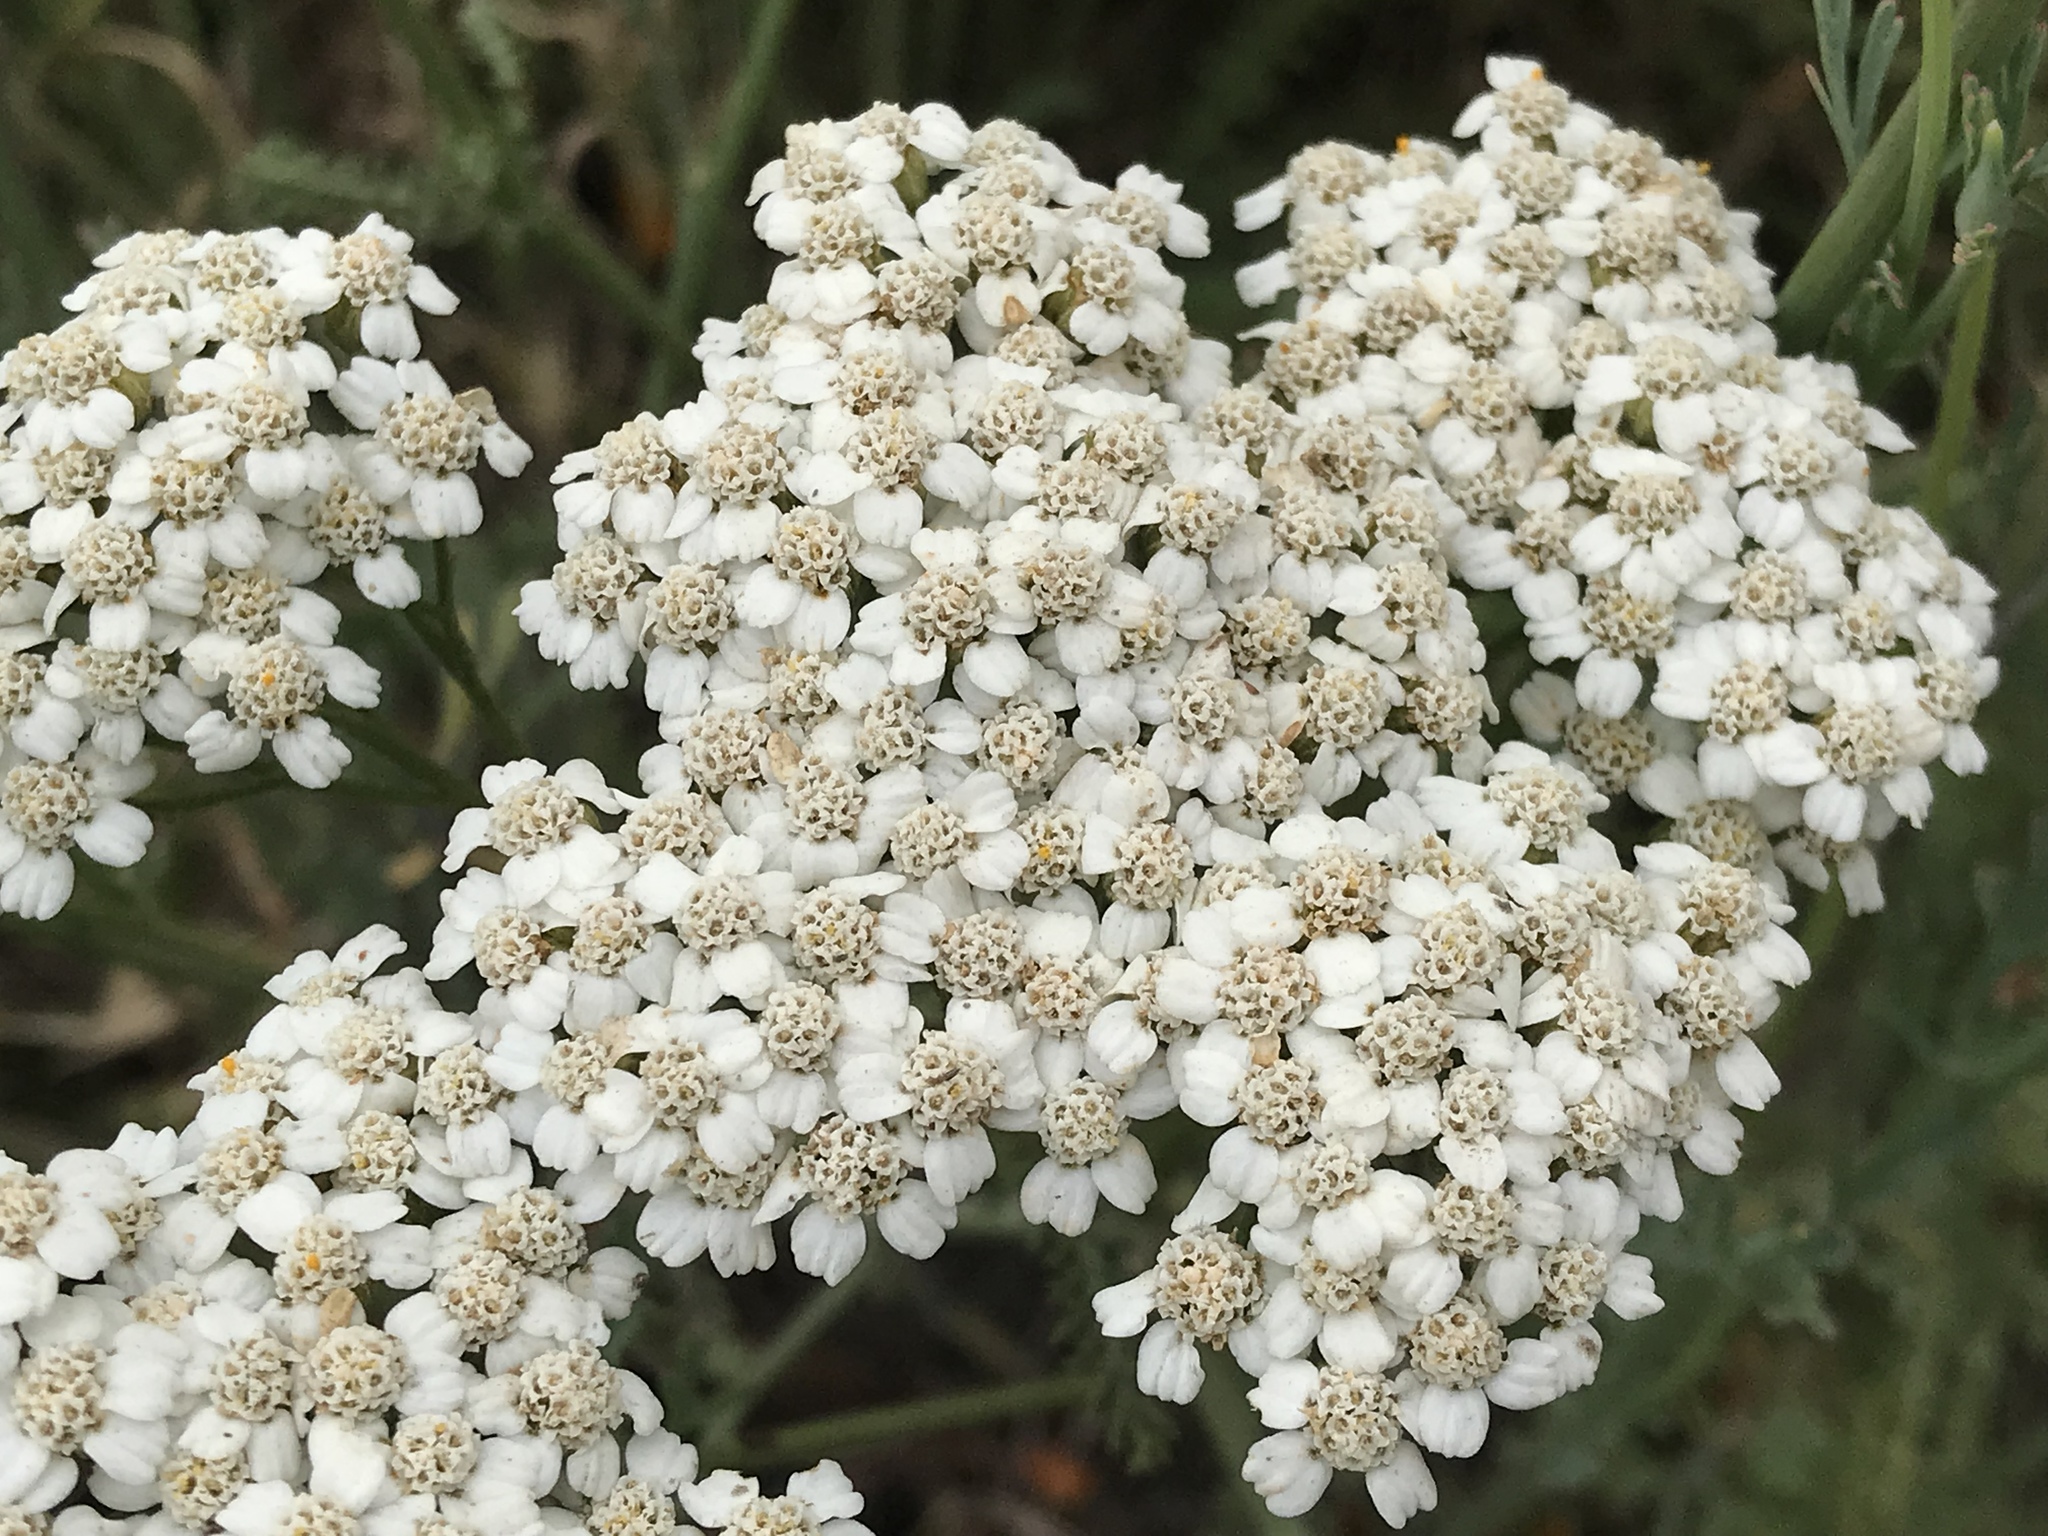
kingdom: Plantae
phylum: Tracheophyta
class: Magnoliopsida
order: Asterales
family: Asteraceae
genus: Achillea
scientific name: Achillea millefolium
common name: Yarrow
